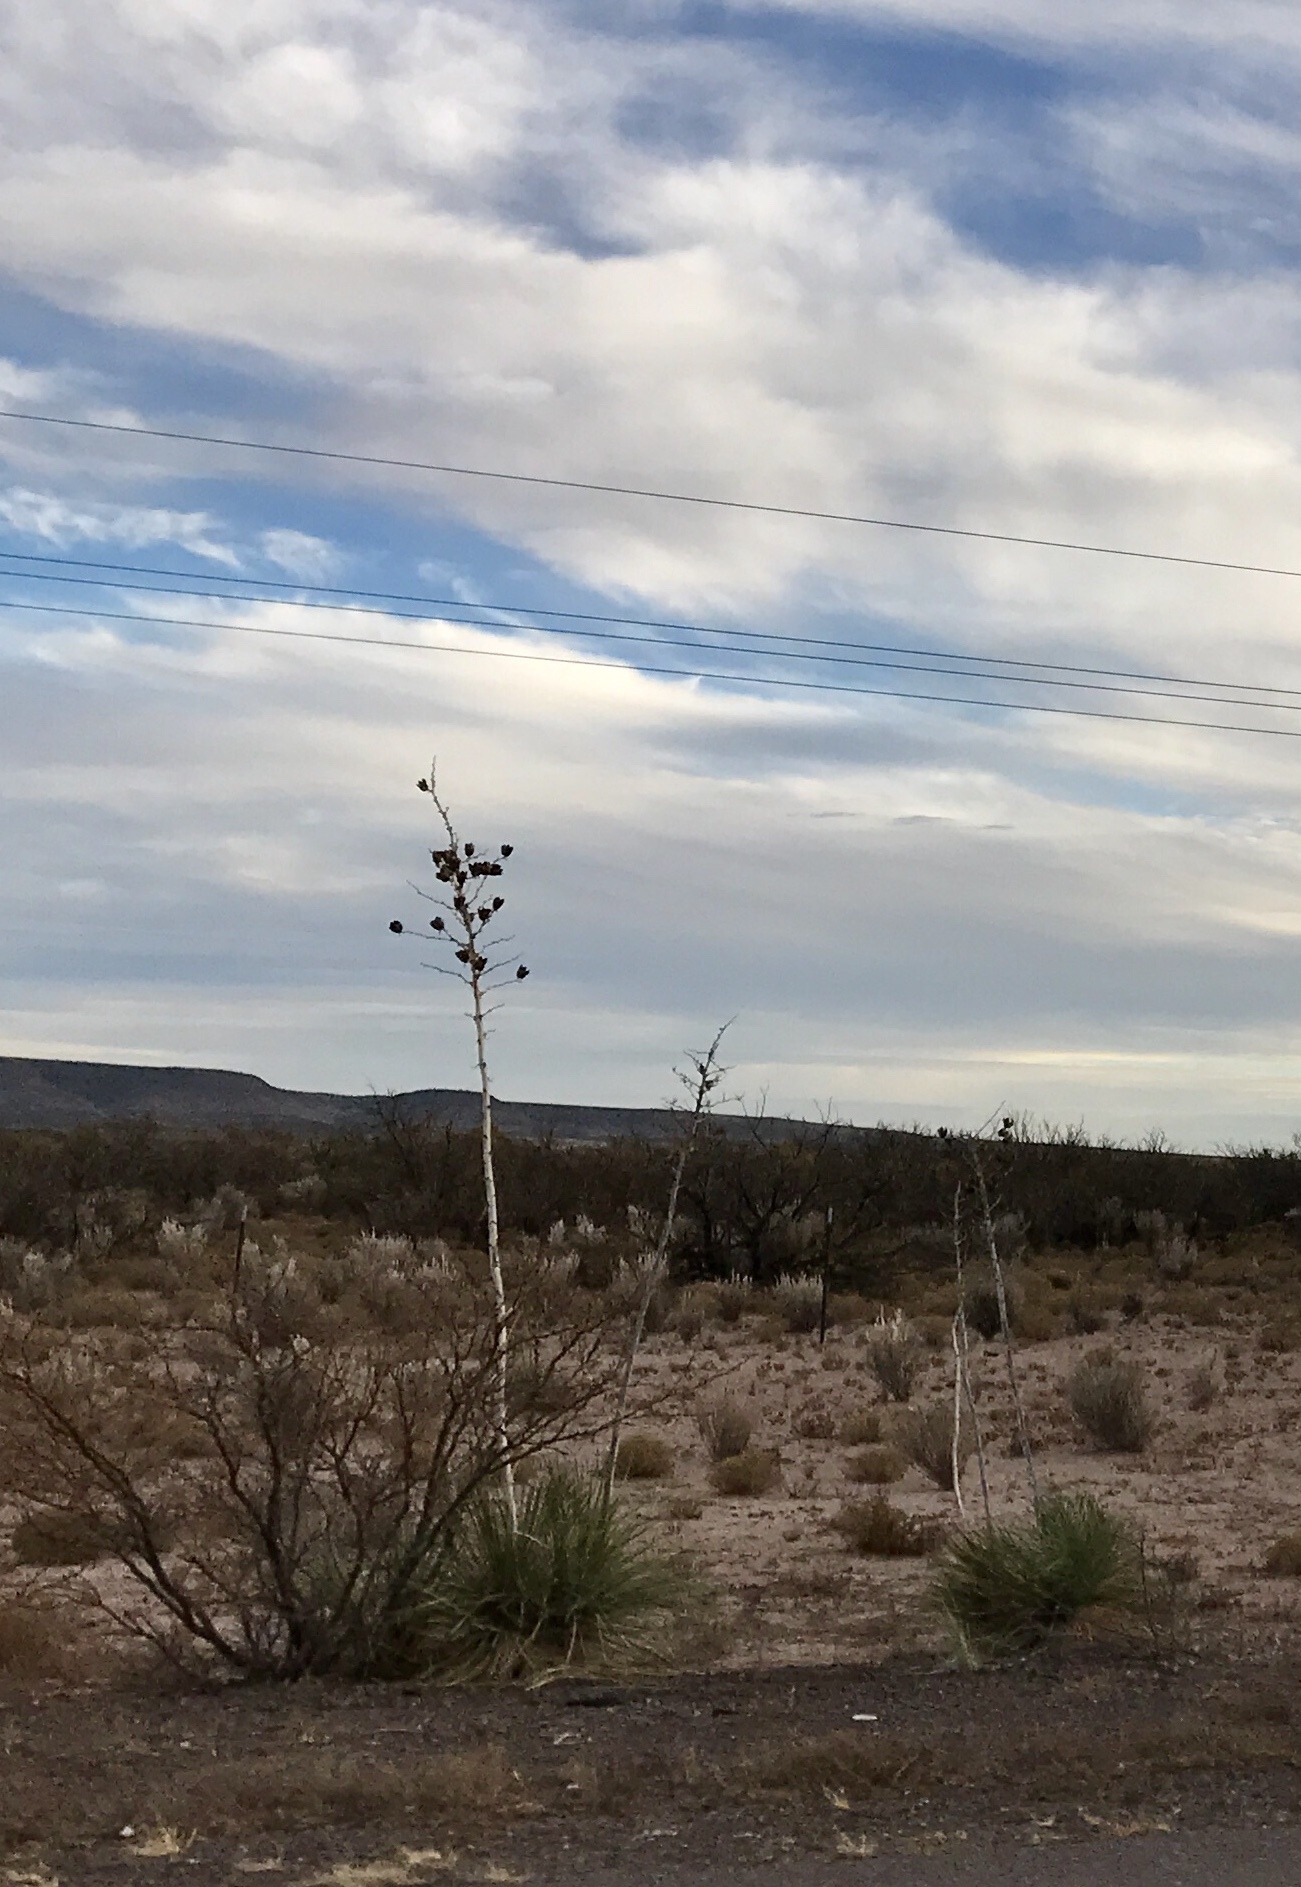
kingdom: Plantae
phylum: Tracheophyta
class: Liliopsida
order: Asparagales
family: Asparagaceae
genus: Yucca
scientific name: Yucca elata
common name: Palmella
